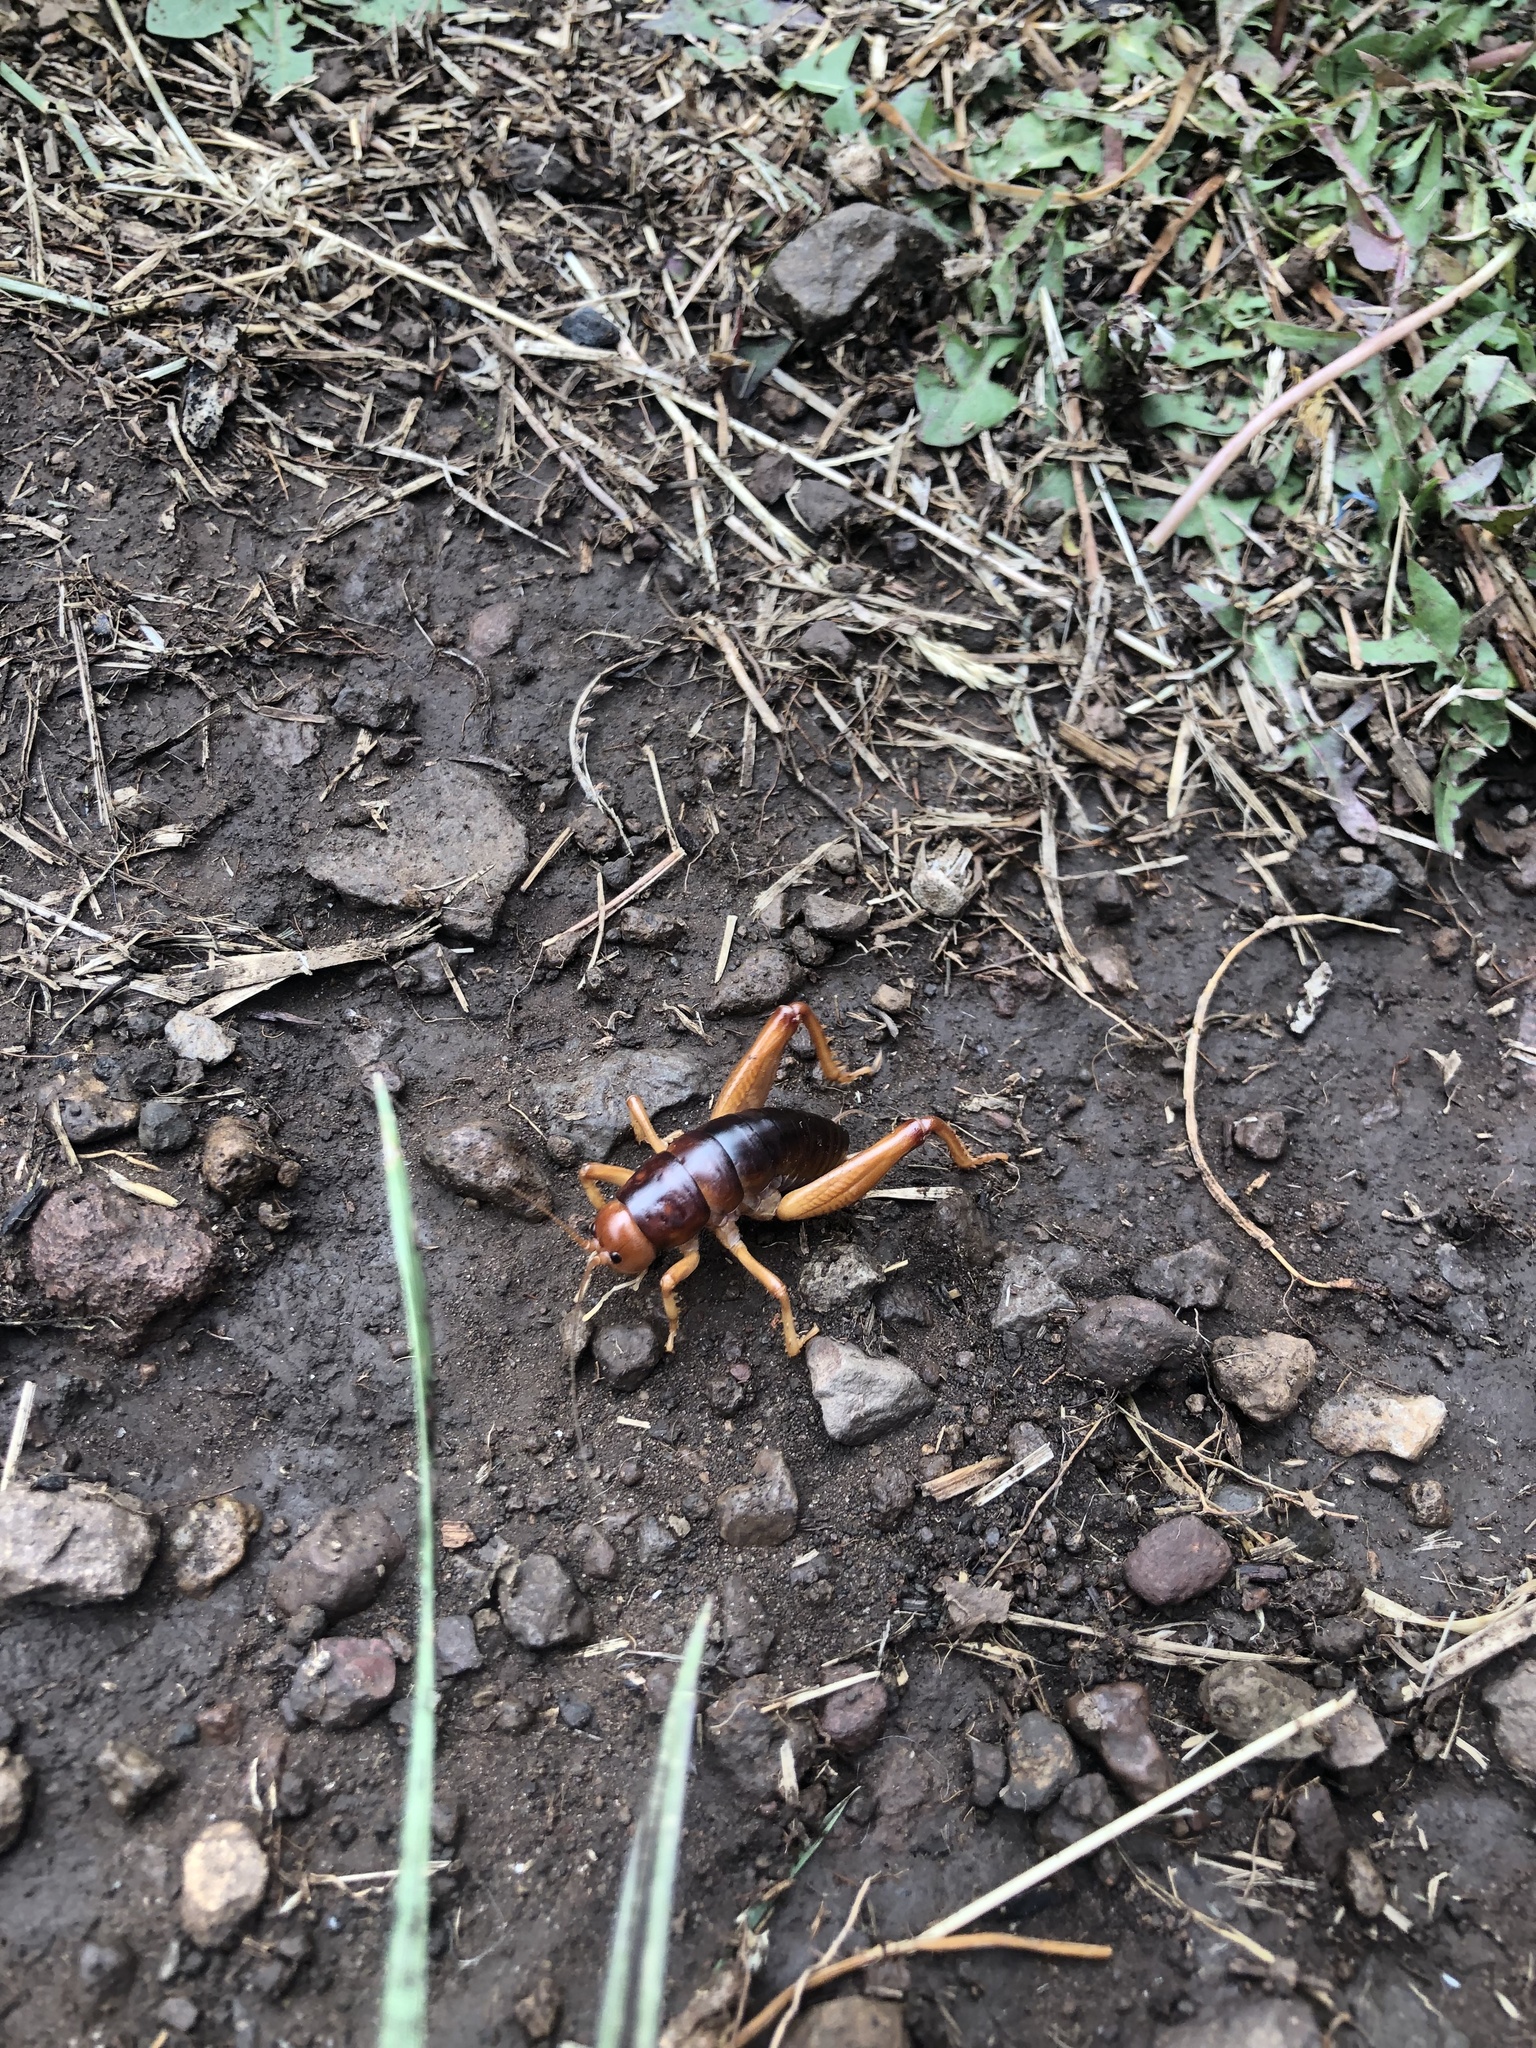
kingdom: Animalia
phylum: Arthropoda
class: Insecta
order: Orthoptera
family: Rhaphidophoridae
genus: Styracosceles
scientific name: Styracosceles neomexicanus
